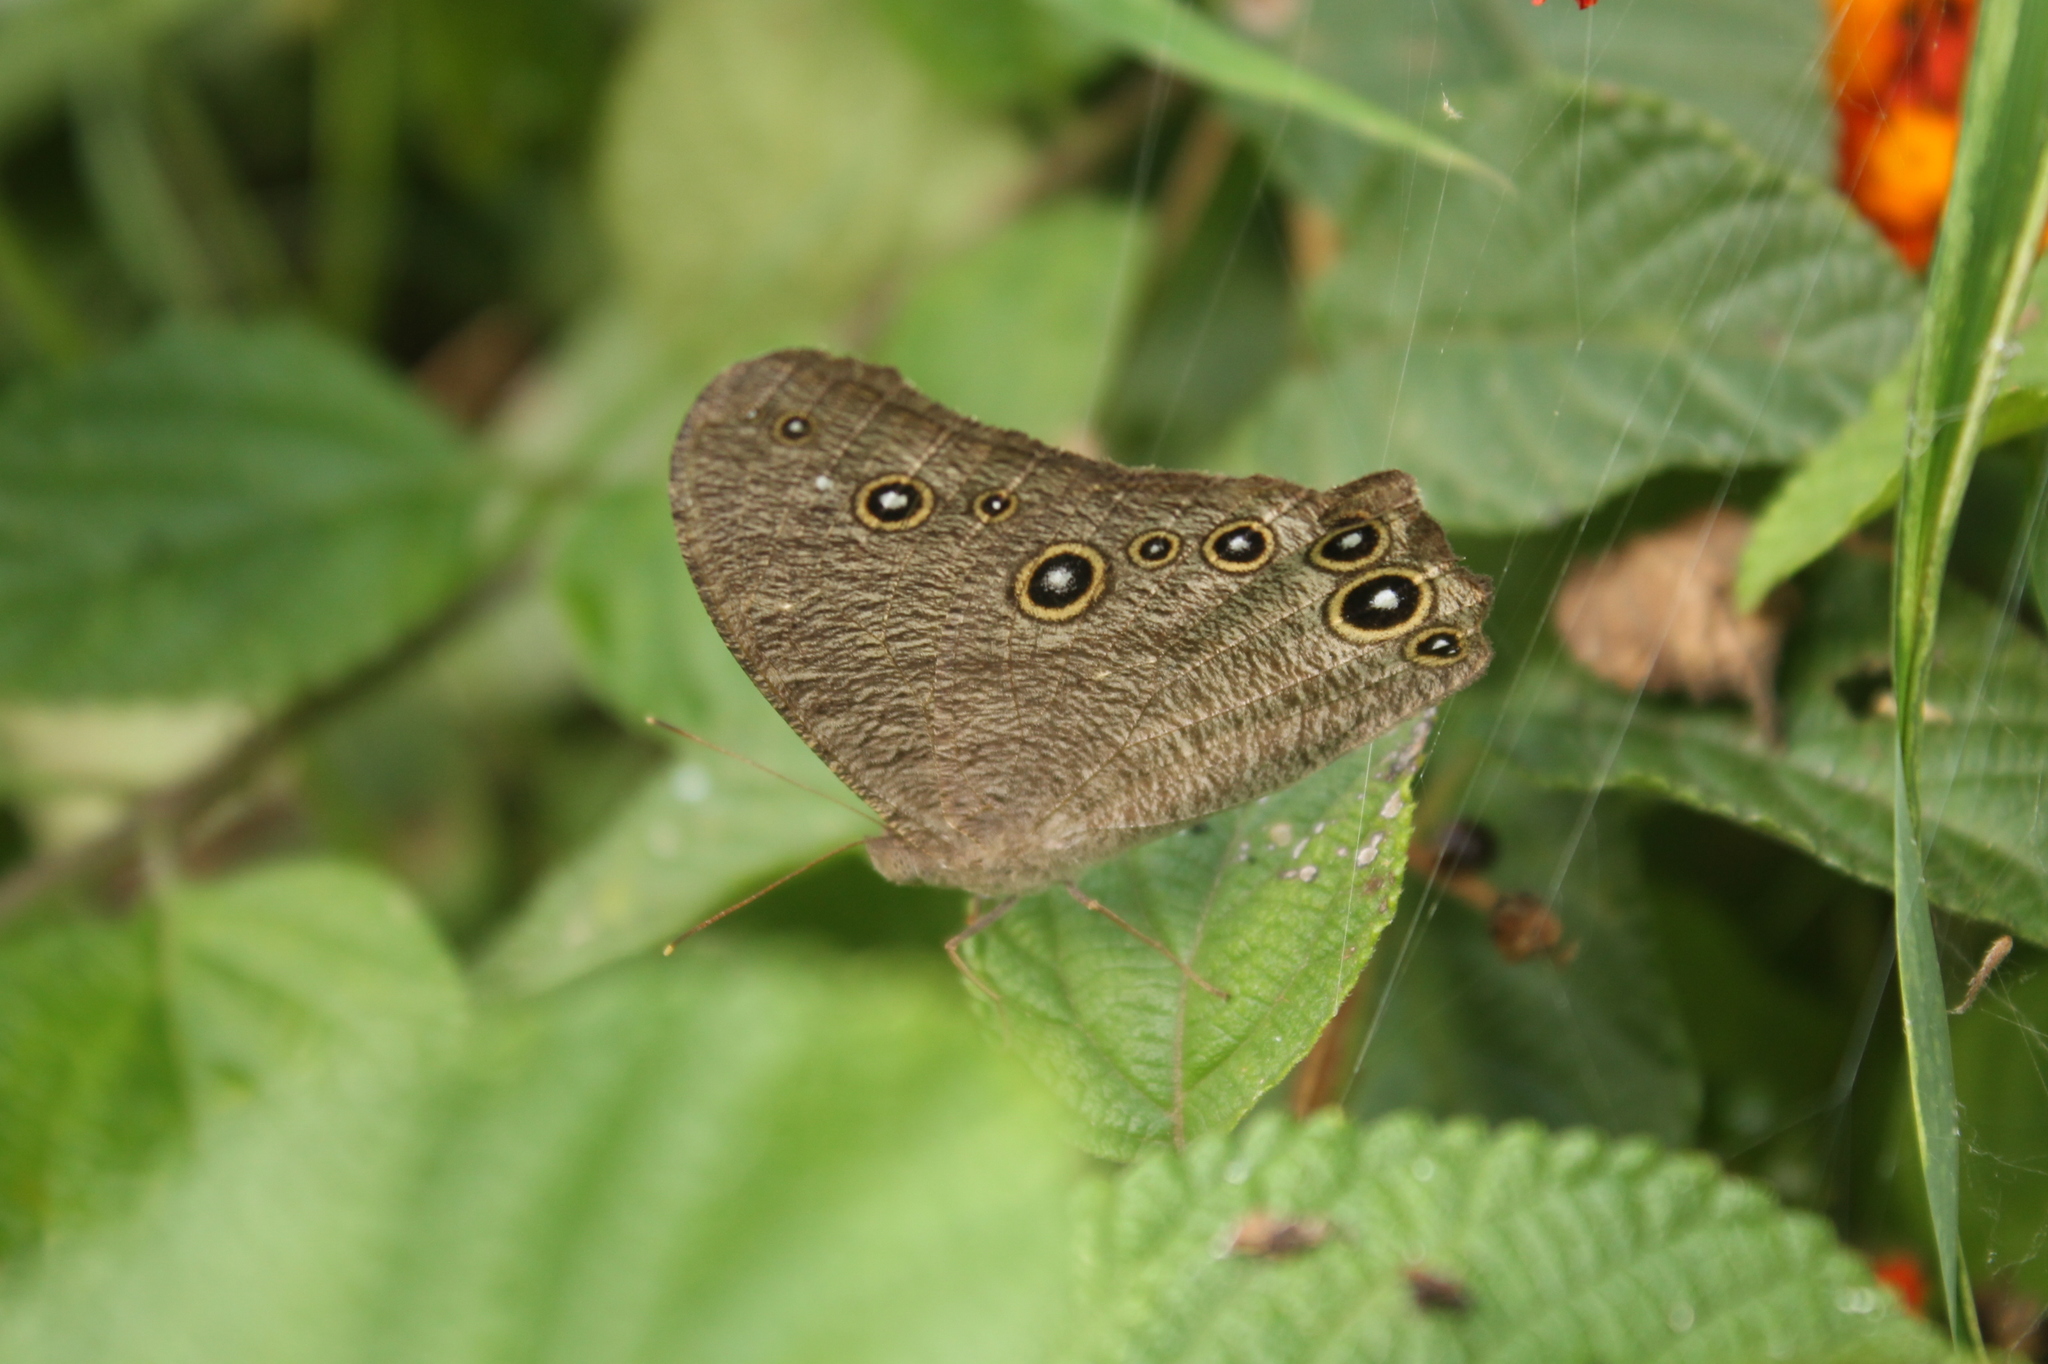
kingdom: Animalia
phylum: Arthropoda
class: Insecta
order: Lepidoptera
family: Nymphalidae
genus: Melanitis
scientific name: Melanitis leda
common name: Twilight brown
